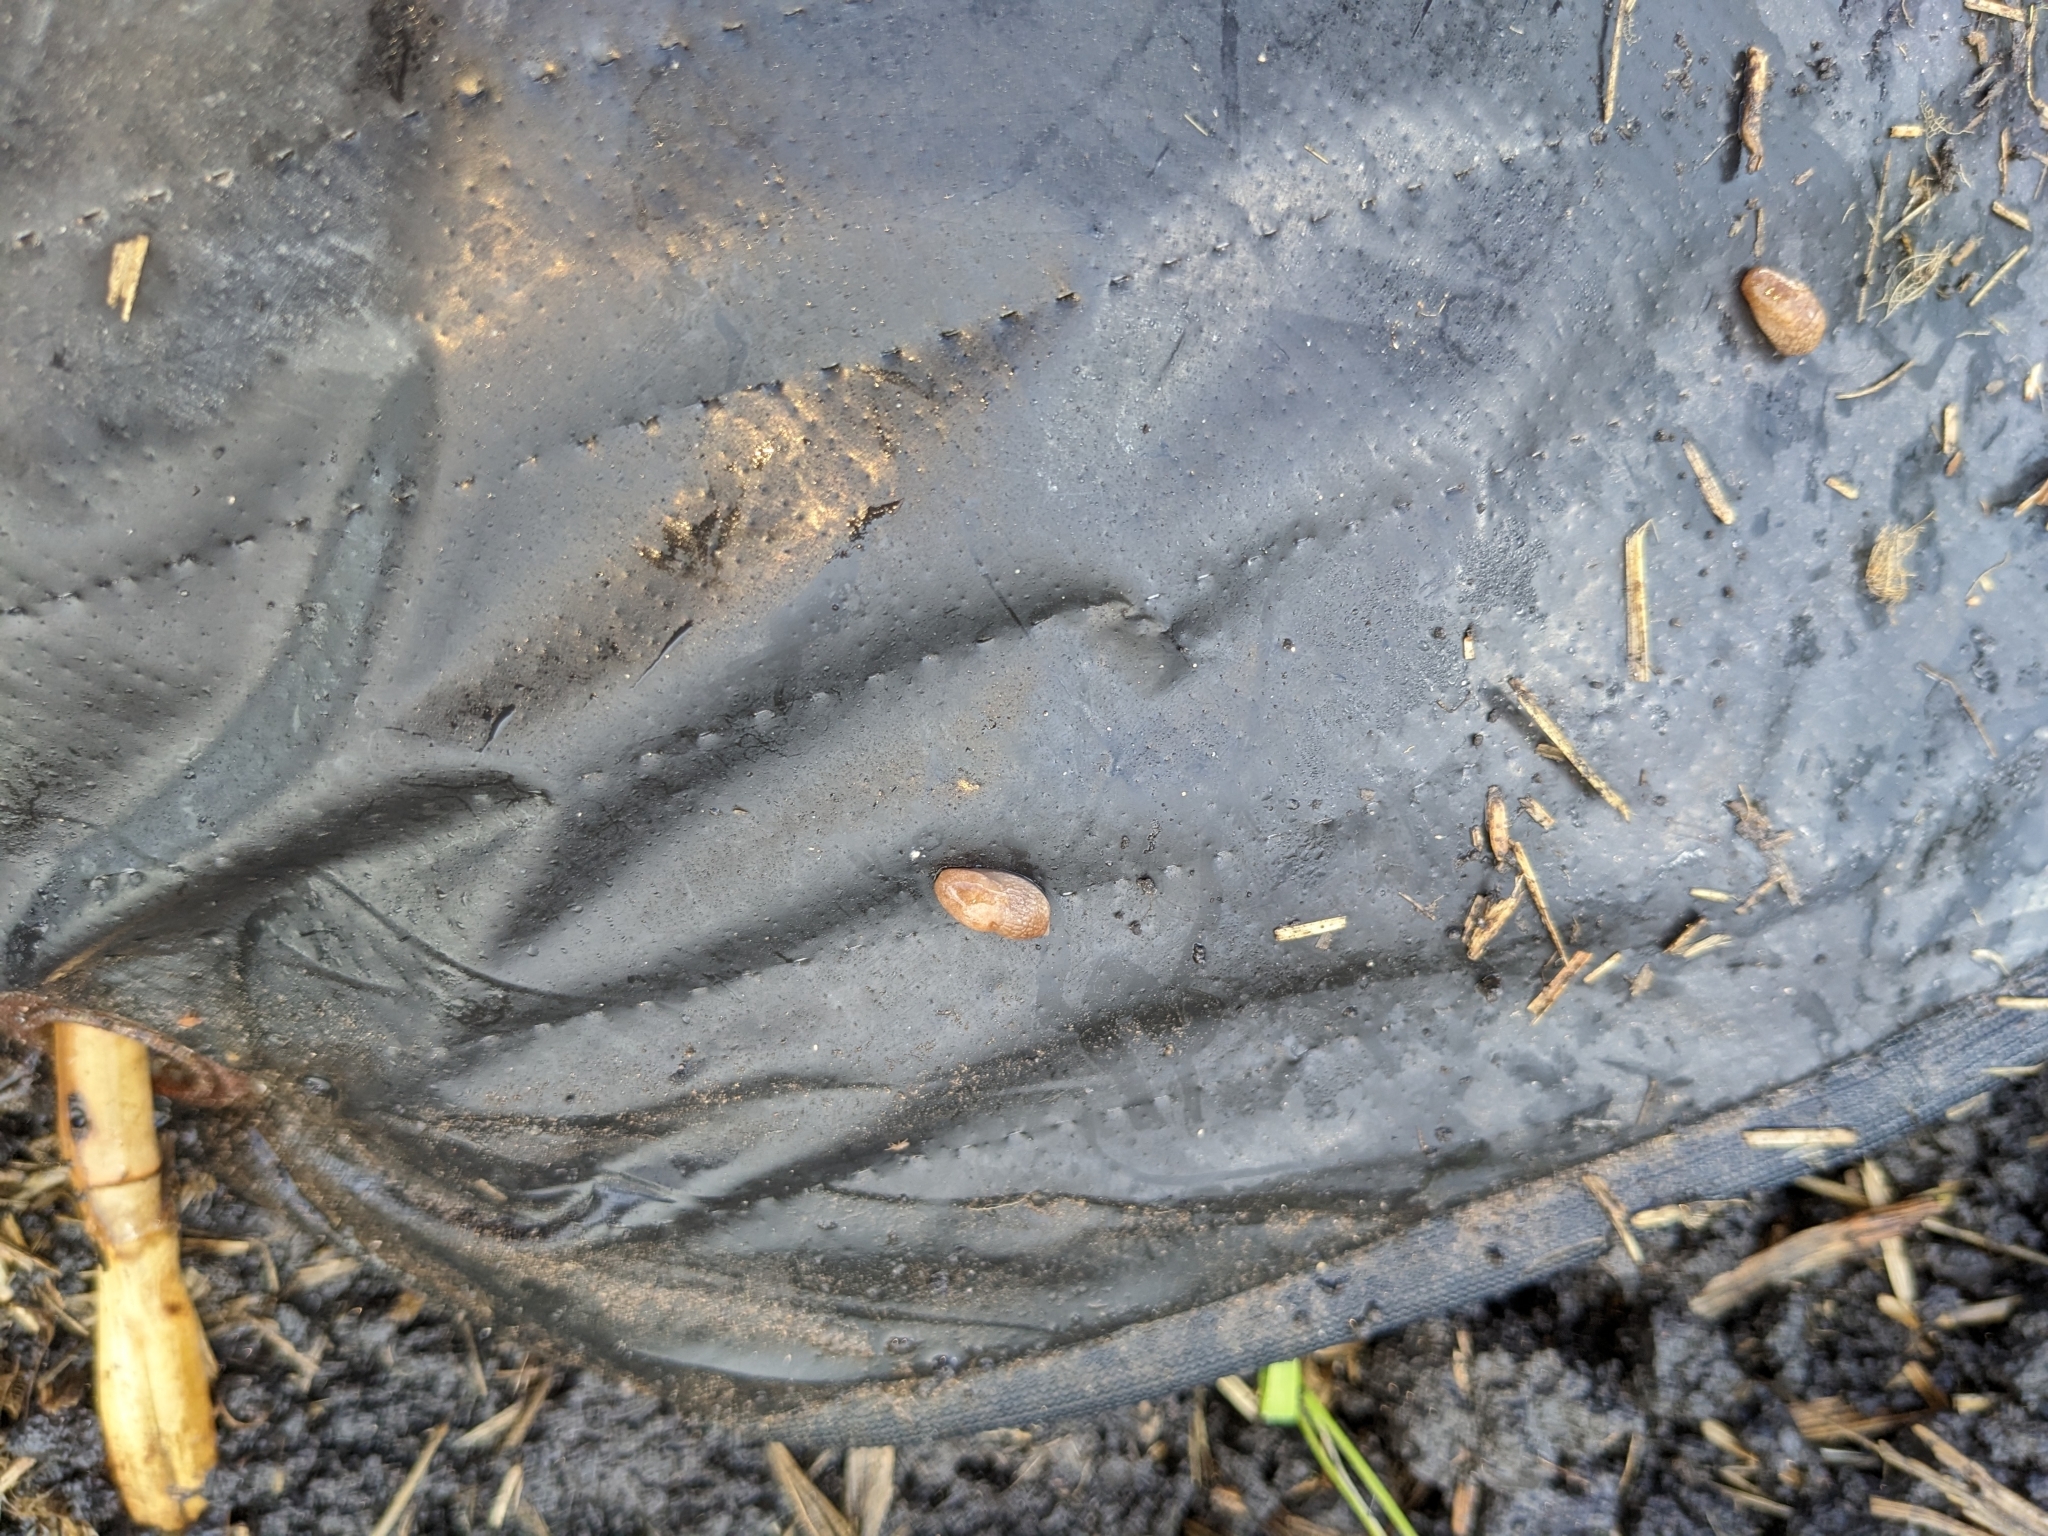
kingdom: Animalia
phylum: Mollusca
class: Gastropoda
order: Stylommatophora
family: Agriolimacidae
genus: Deroceras
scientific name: Deroceras reticulatum
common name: Gray field slug
